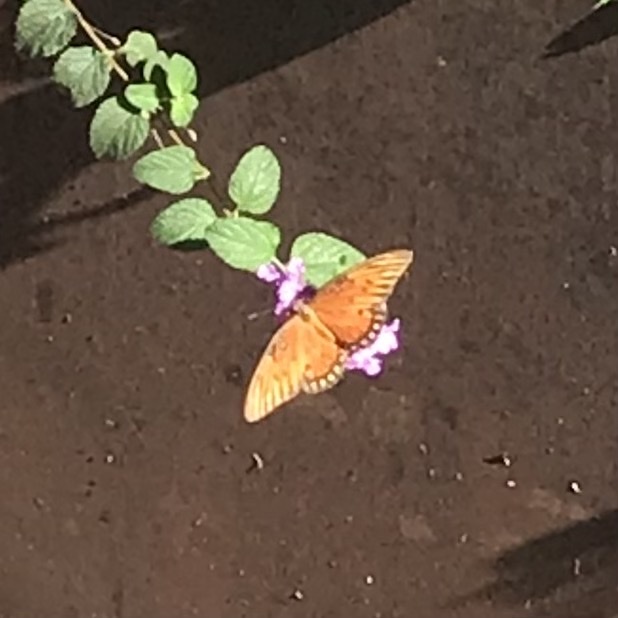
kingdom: Animalia
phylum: Arthropoda
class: Insecta
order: Lepidoptera
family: Nymphalidae
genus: Dione
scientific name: Dione vanillae
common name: Gulf fritillary
